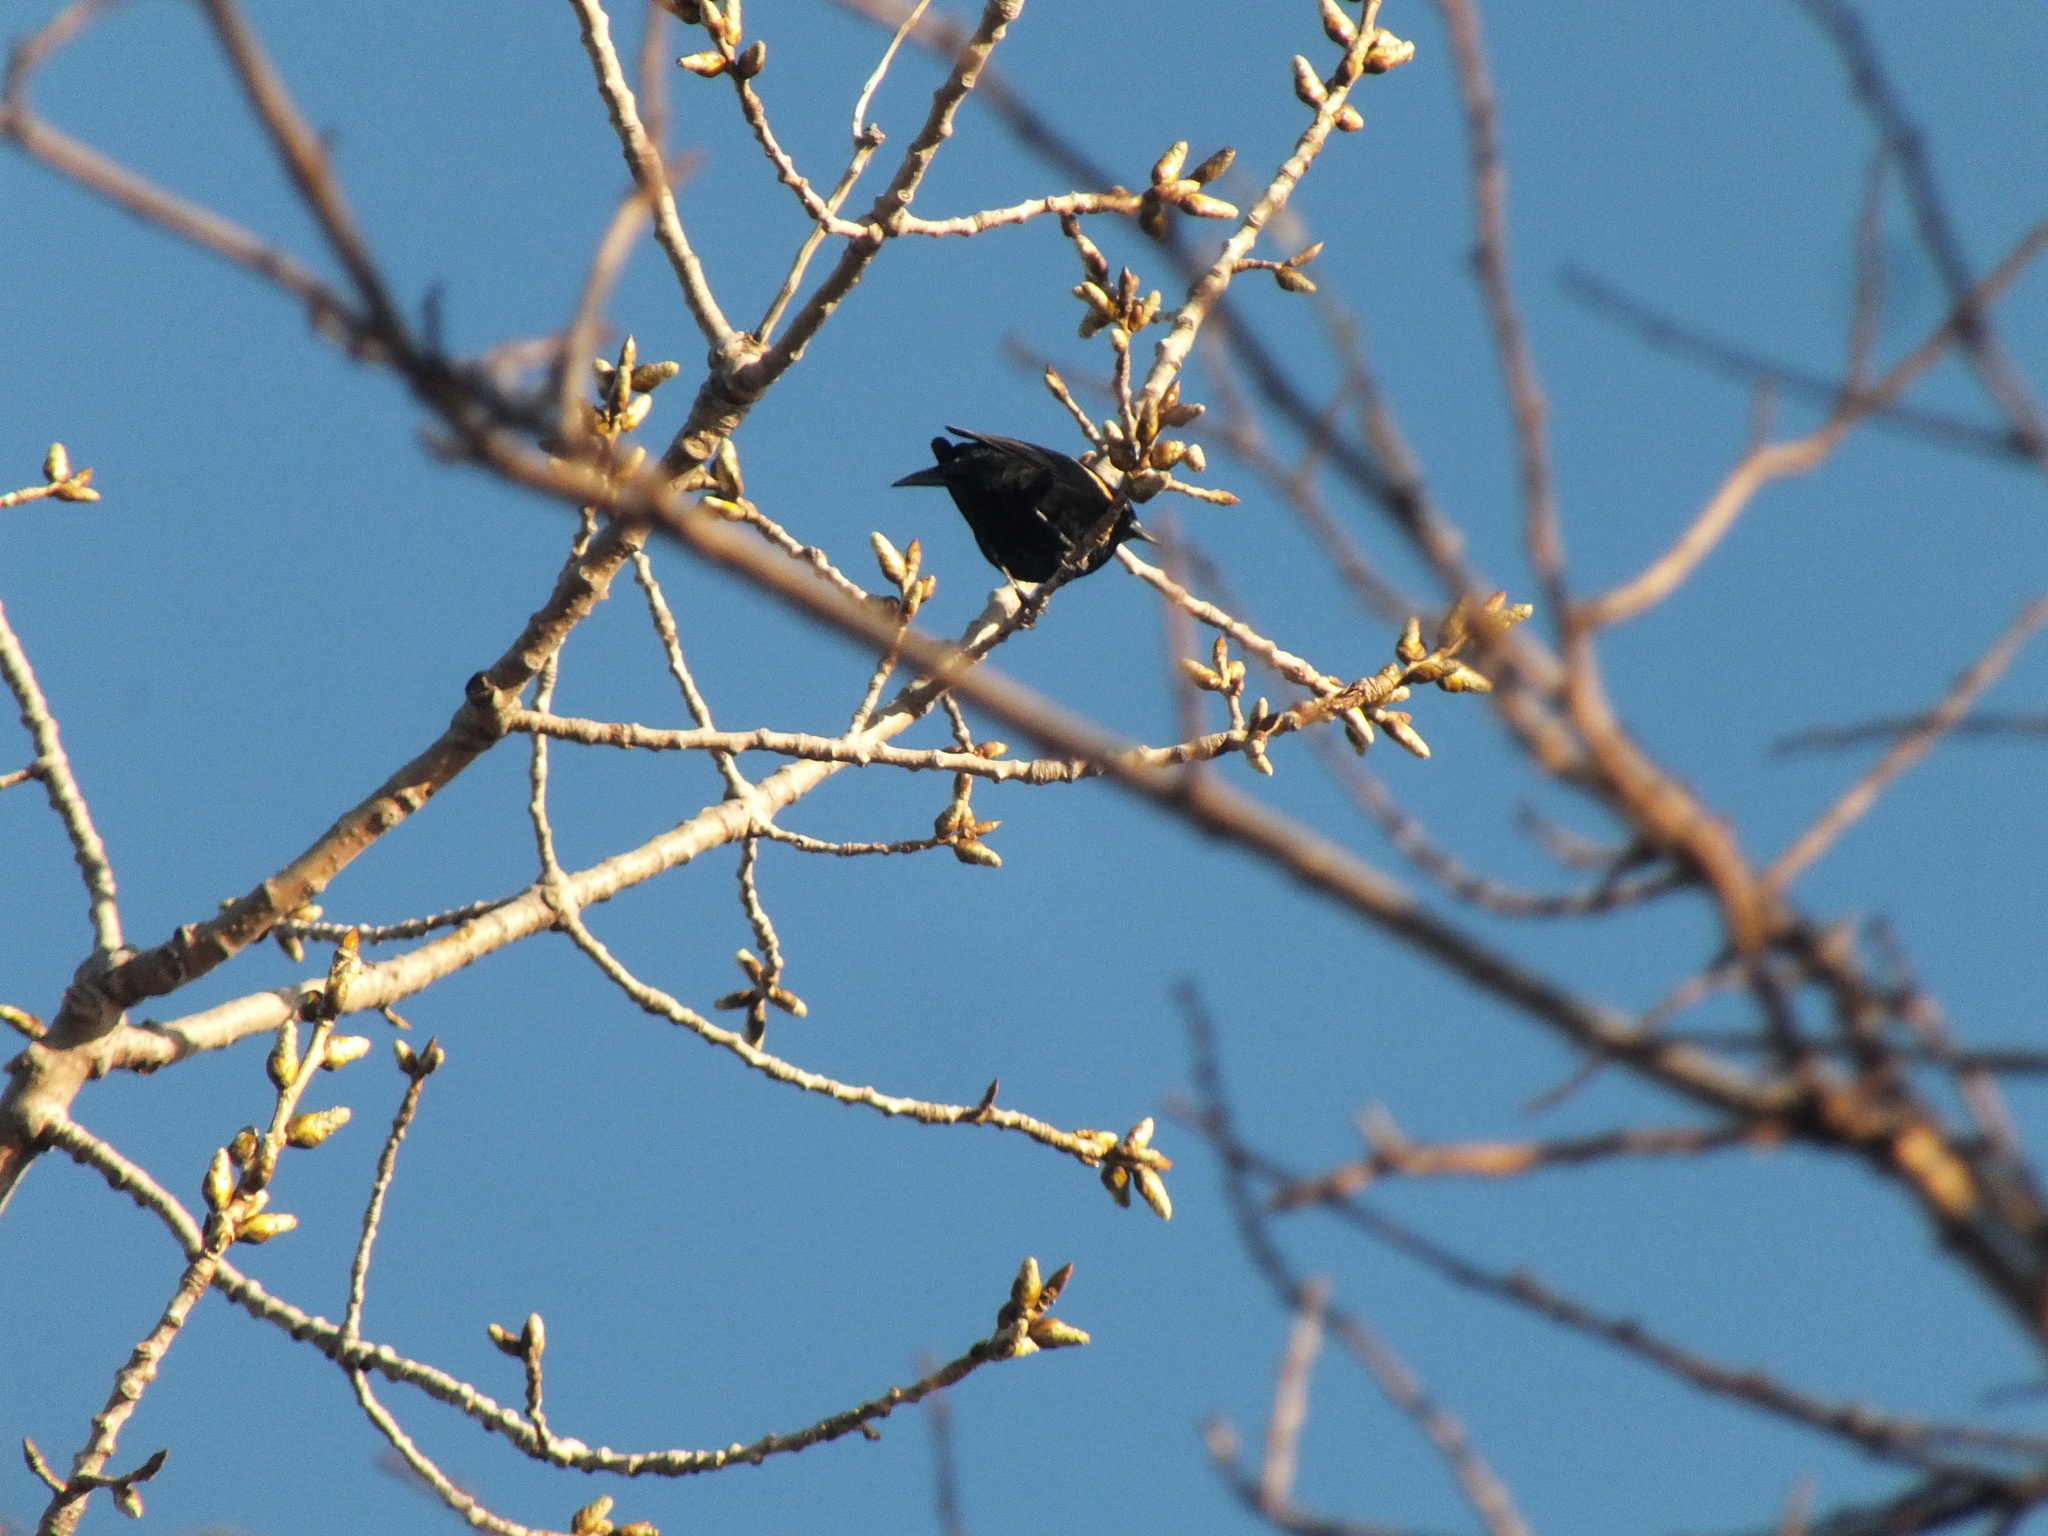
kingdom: Animalia
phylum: Chordata
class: Aves
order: Passeriformes
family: Icteridae
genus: Agelaius
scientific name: Agelaius phoeniceus
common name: Red-winged blackbird
